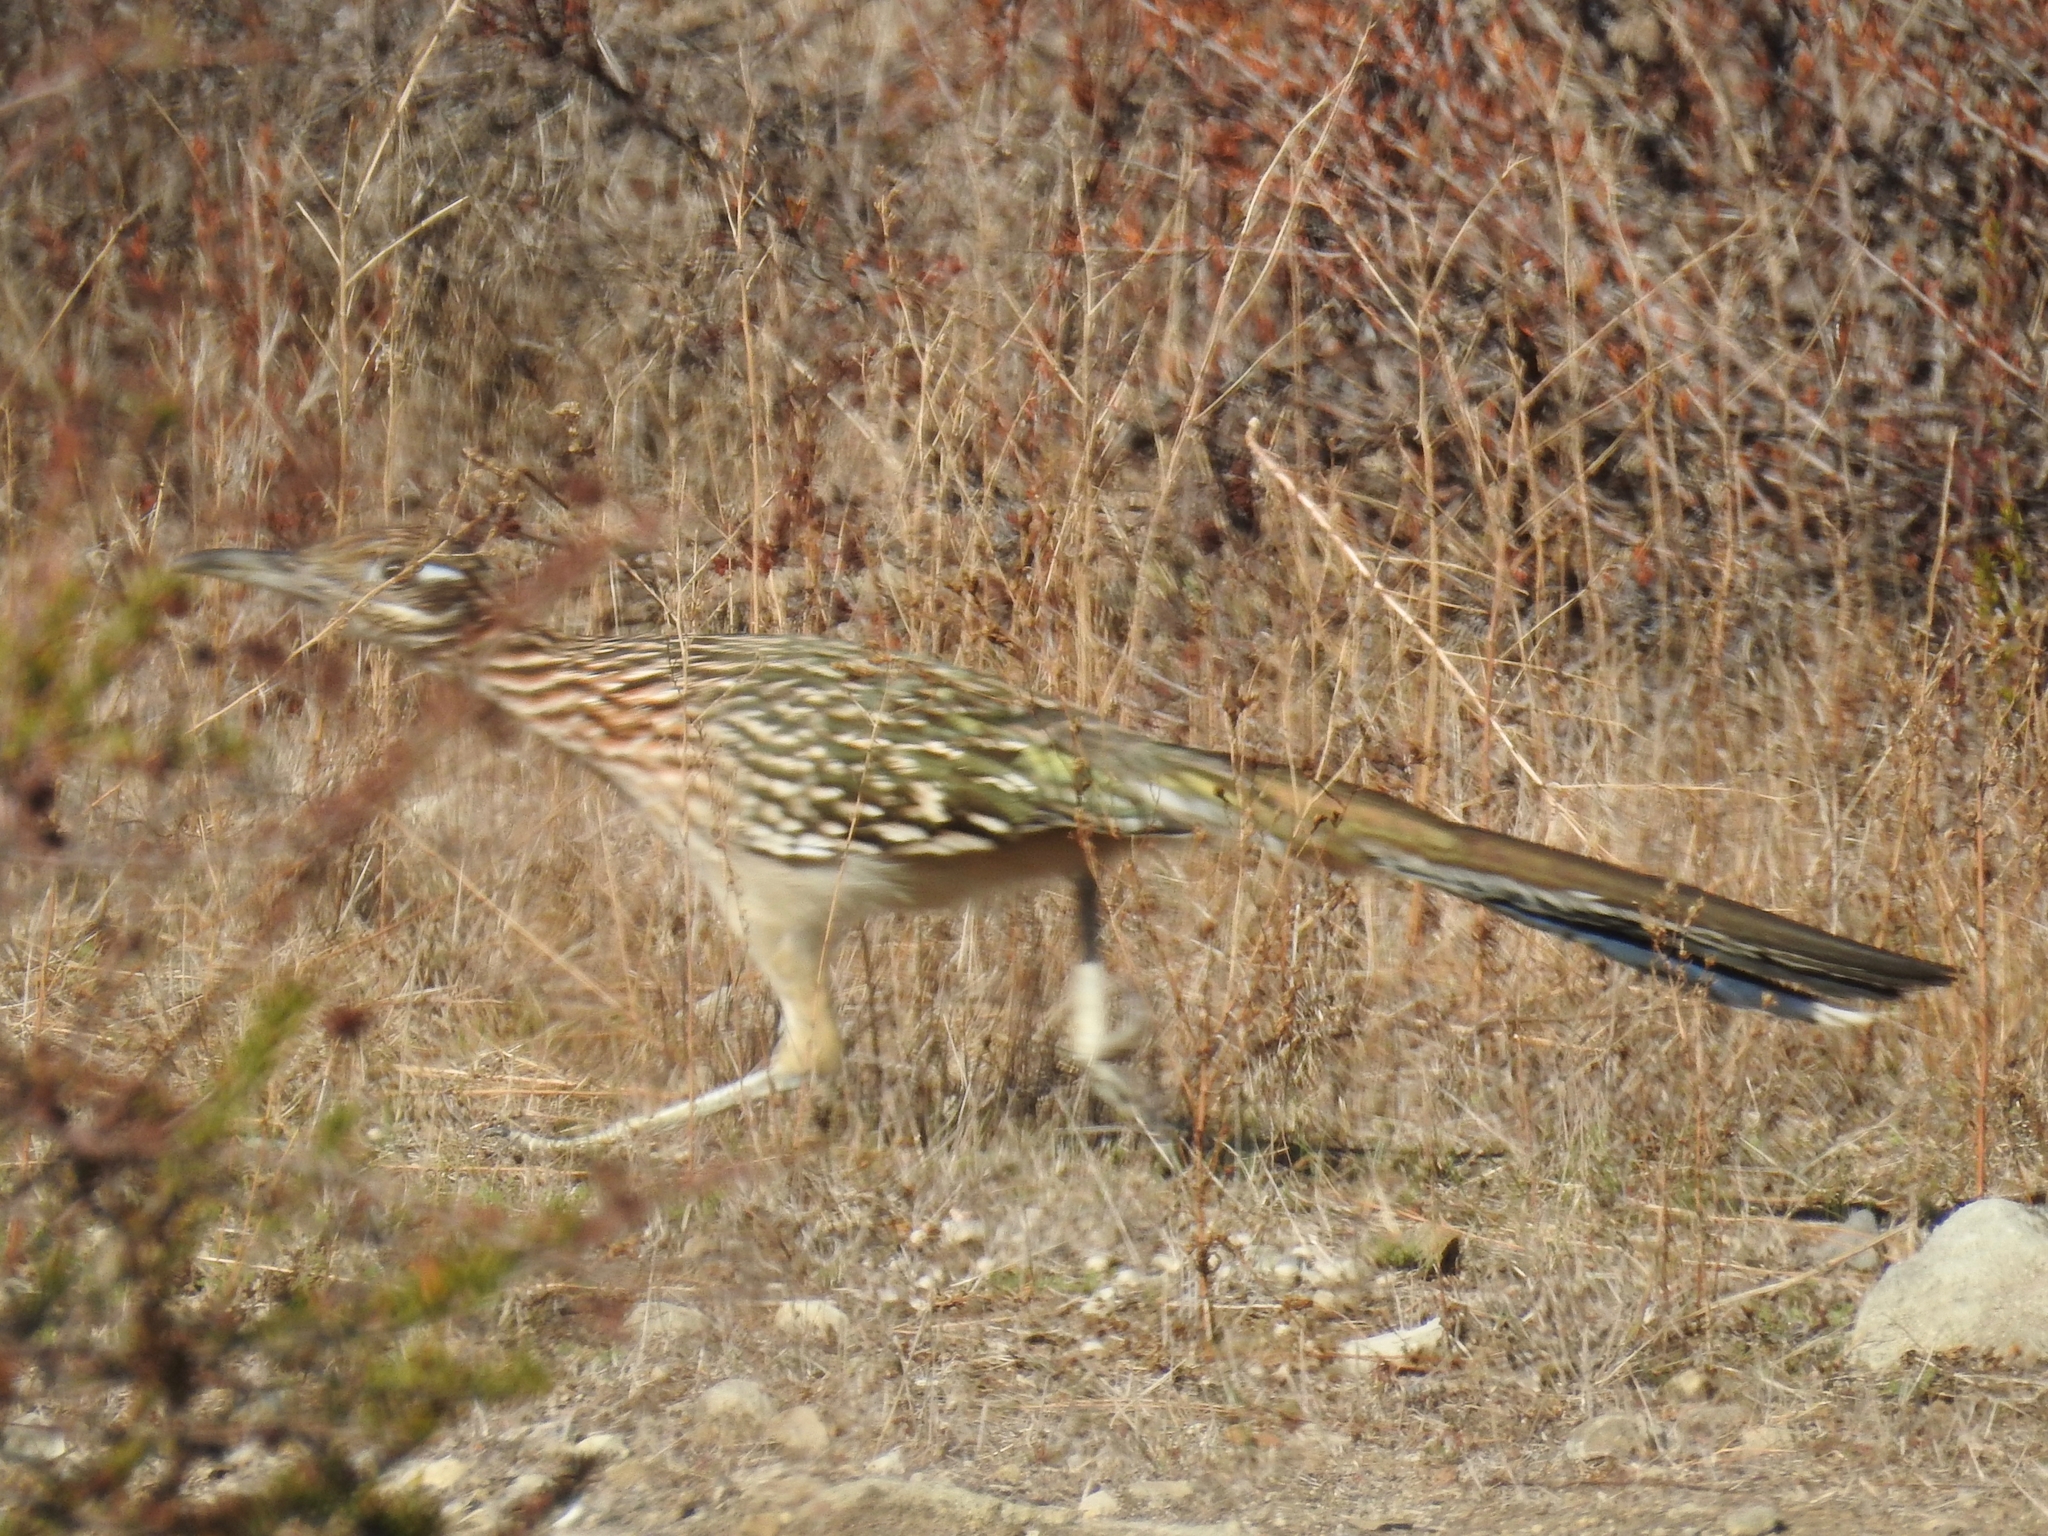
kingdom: Animalia
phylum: Chordata
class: Aves
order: Cuculiformes
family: Cuculidae
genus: Geococcyx
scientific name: Geococcyx californianus
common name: Greater roadrunner
